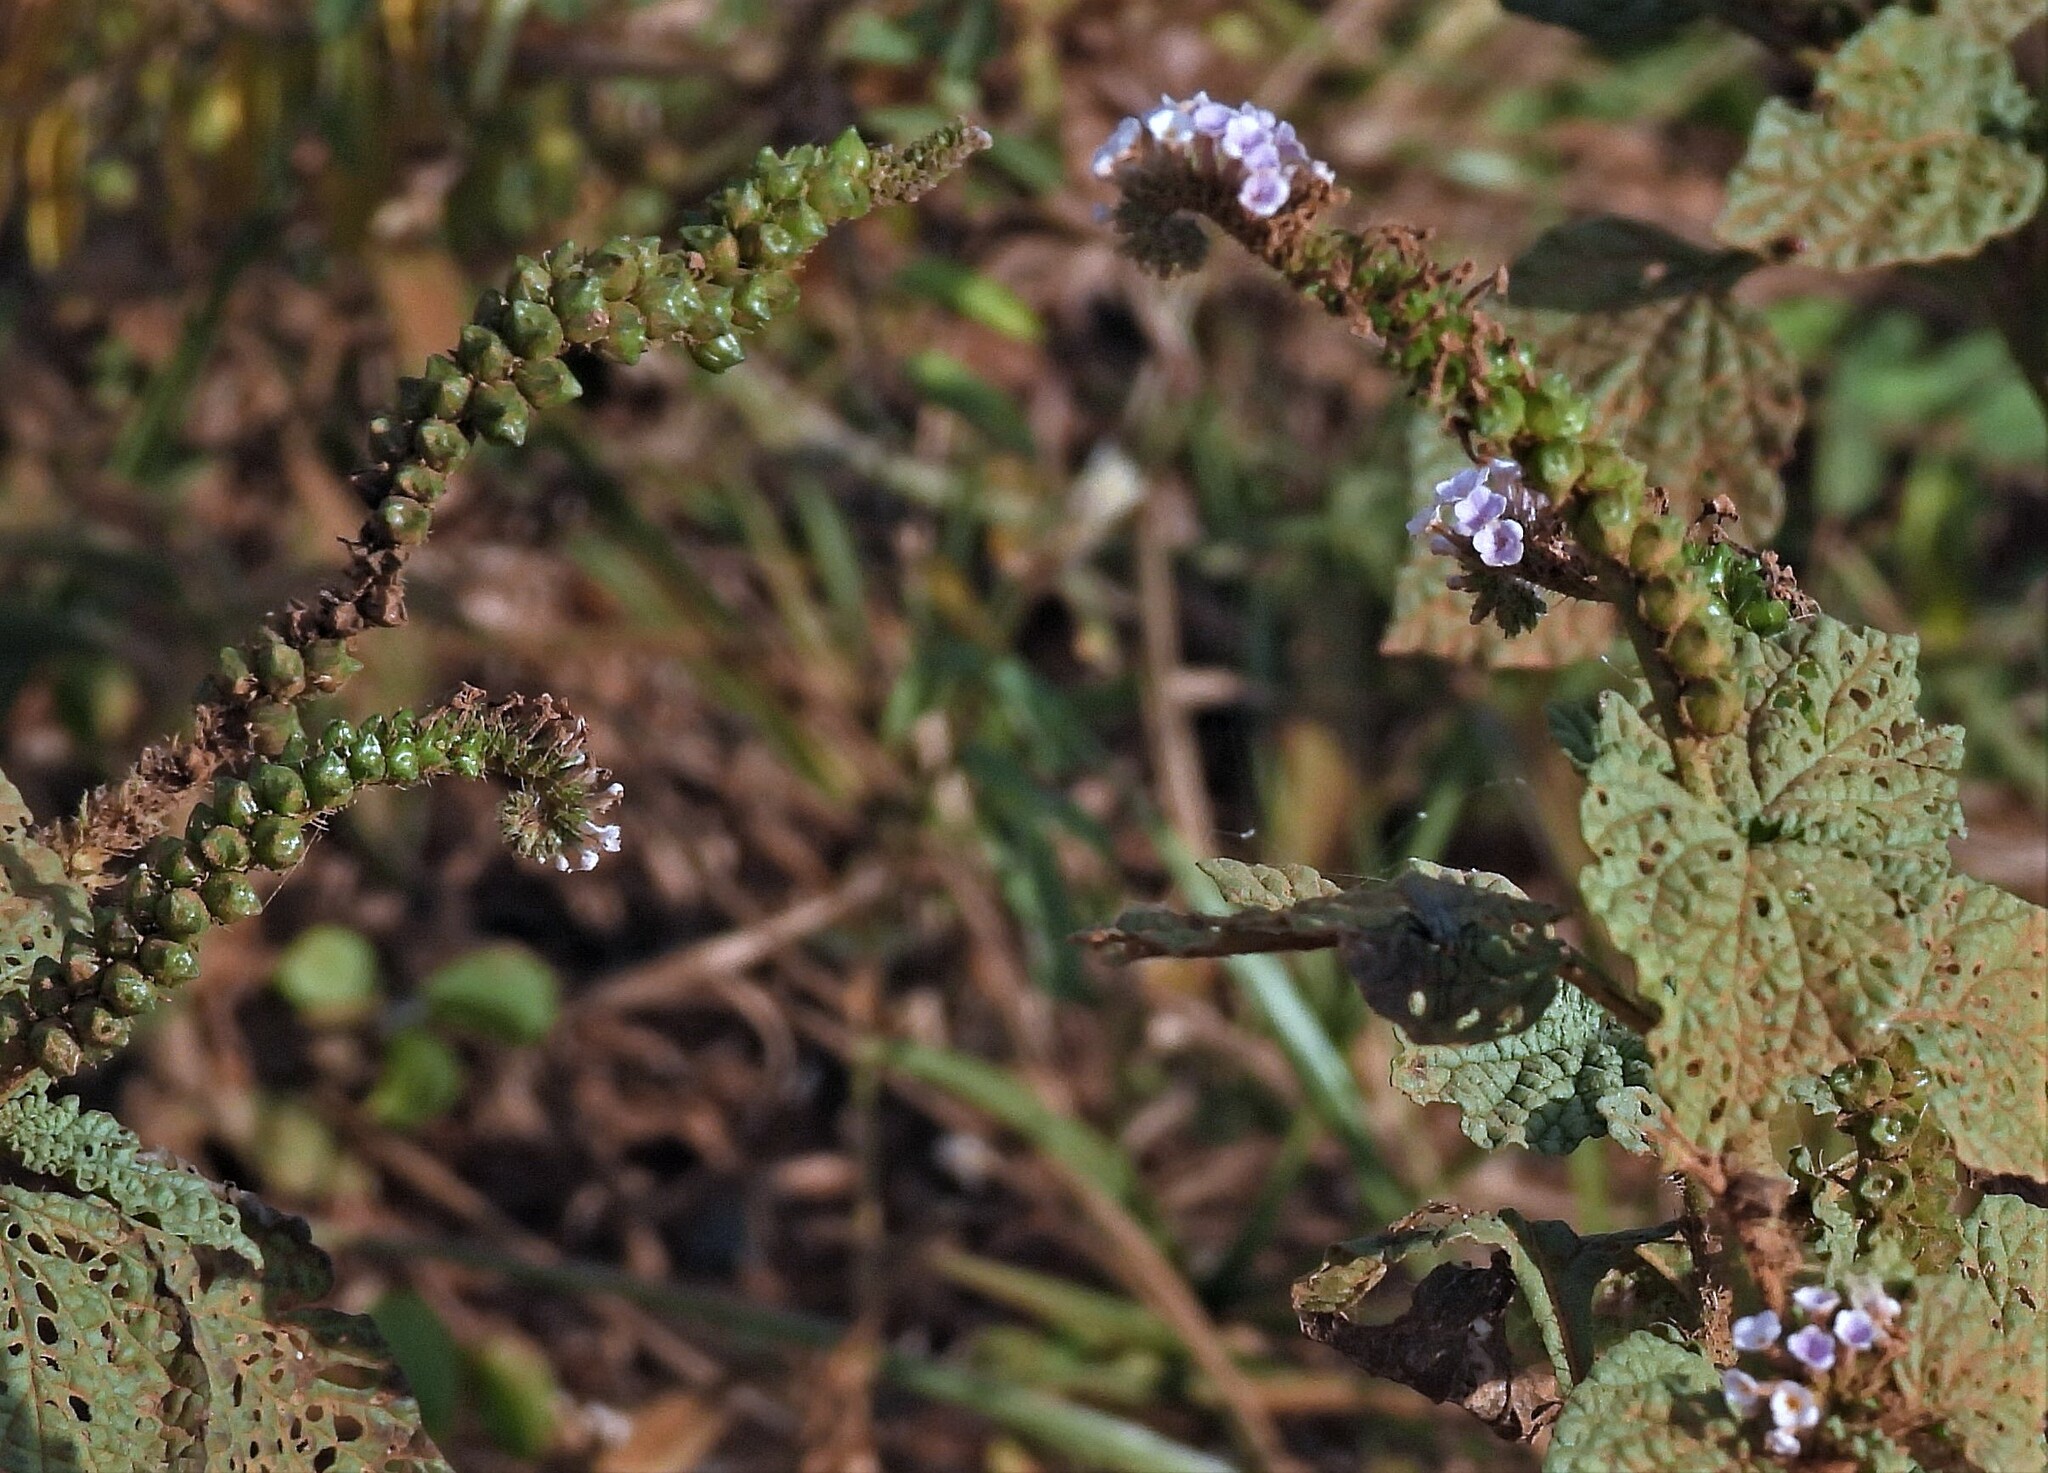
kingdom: Plantae
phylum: Tracheophyta
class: Magnoliopsida
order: Boraginales
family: Heliotropiaceae
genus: Heliotropium
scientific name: Heliotropium elongatum
